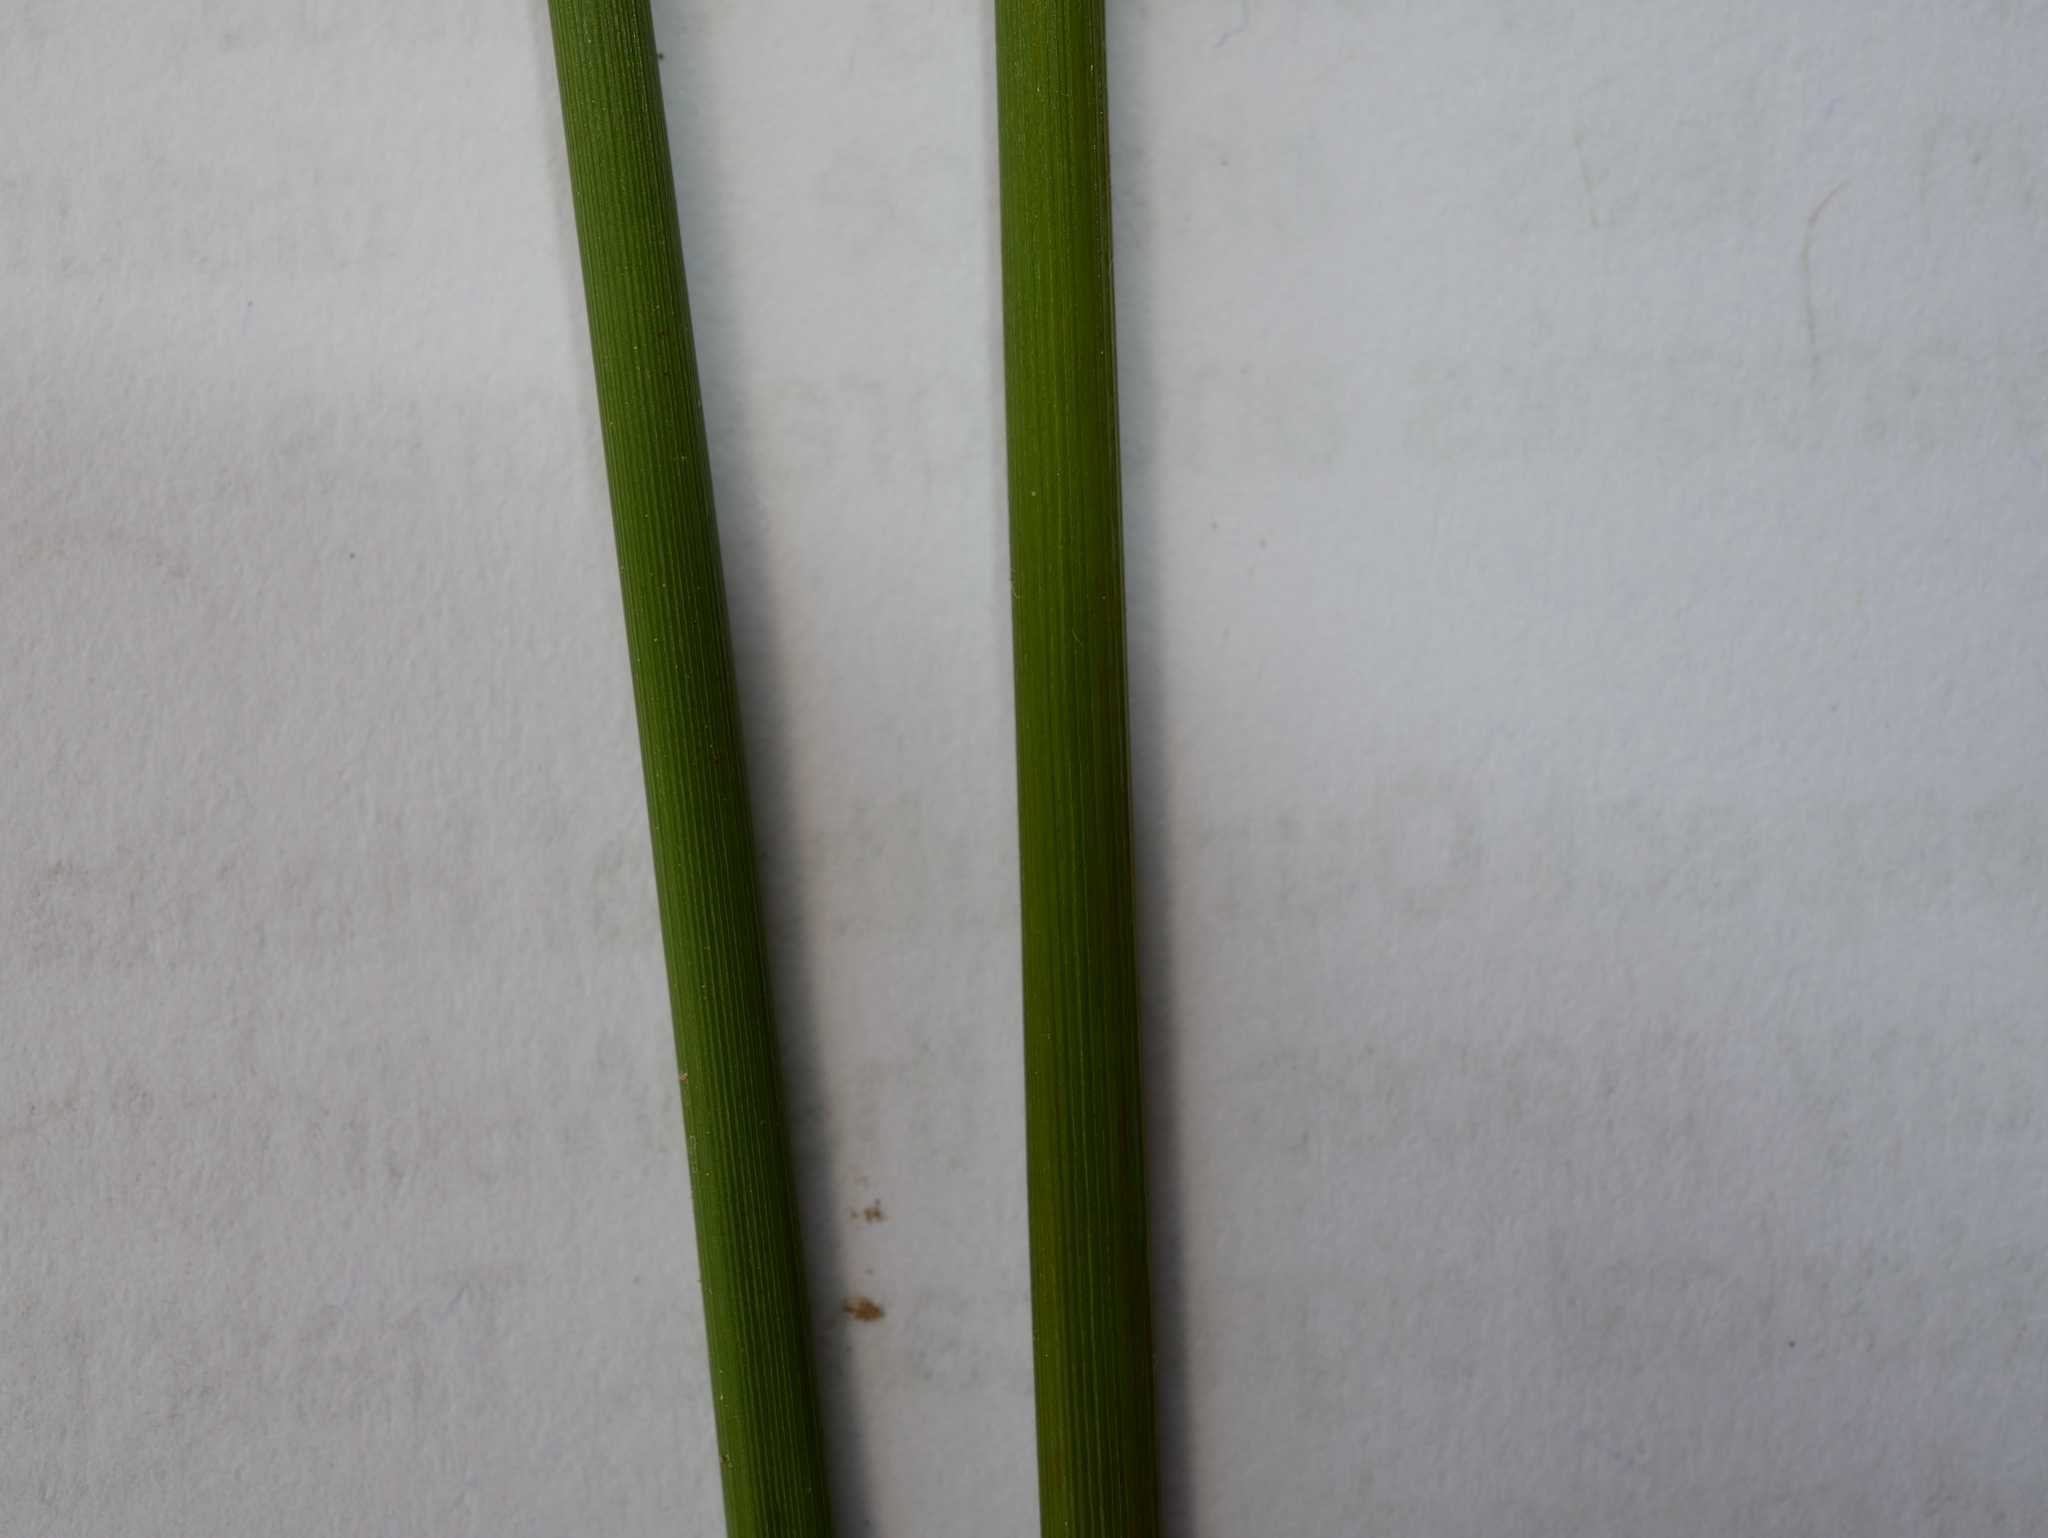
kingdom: Plantae
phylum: Tracheophyta
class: Liliopsida
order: Poales
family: Juncaceae
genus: Juncus
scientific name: Juncus edgariae
